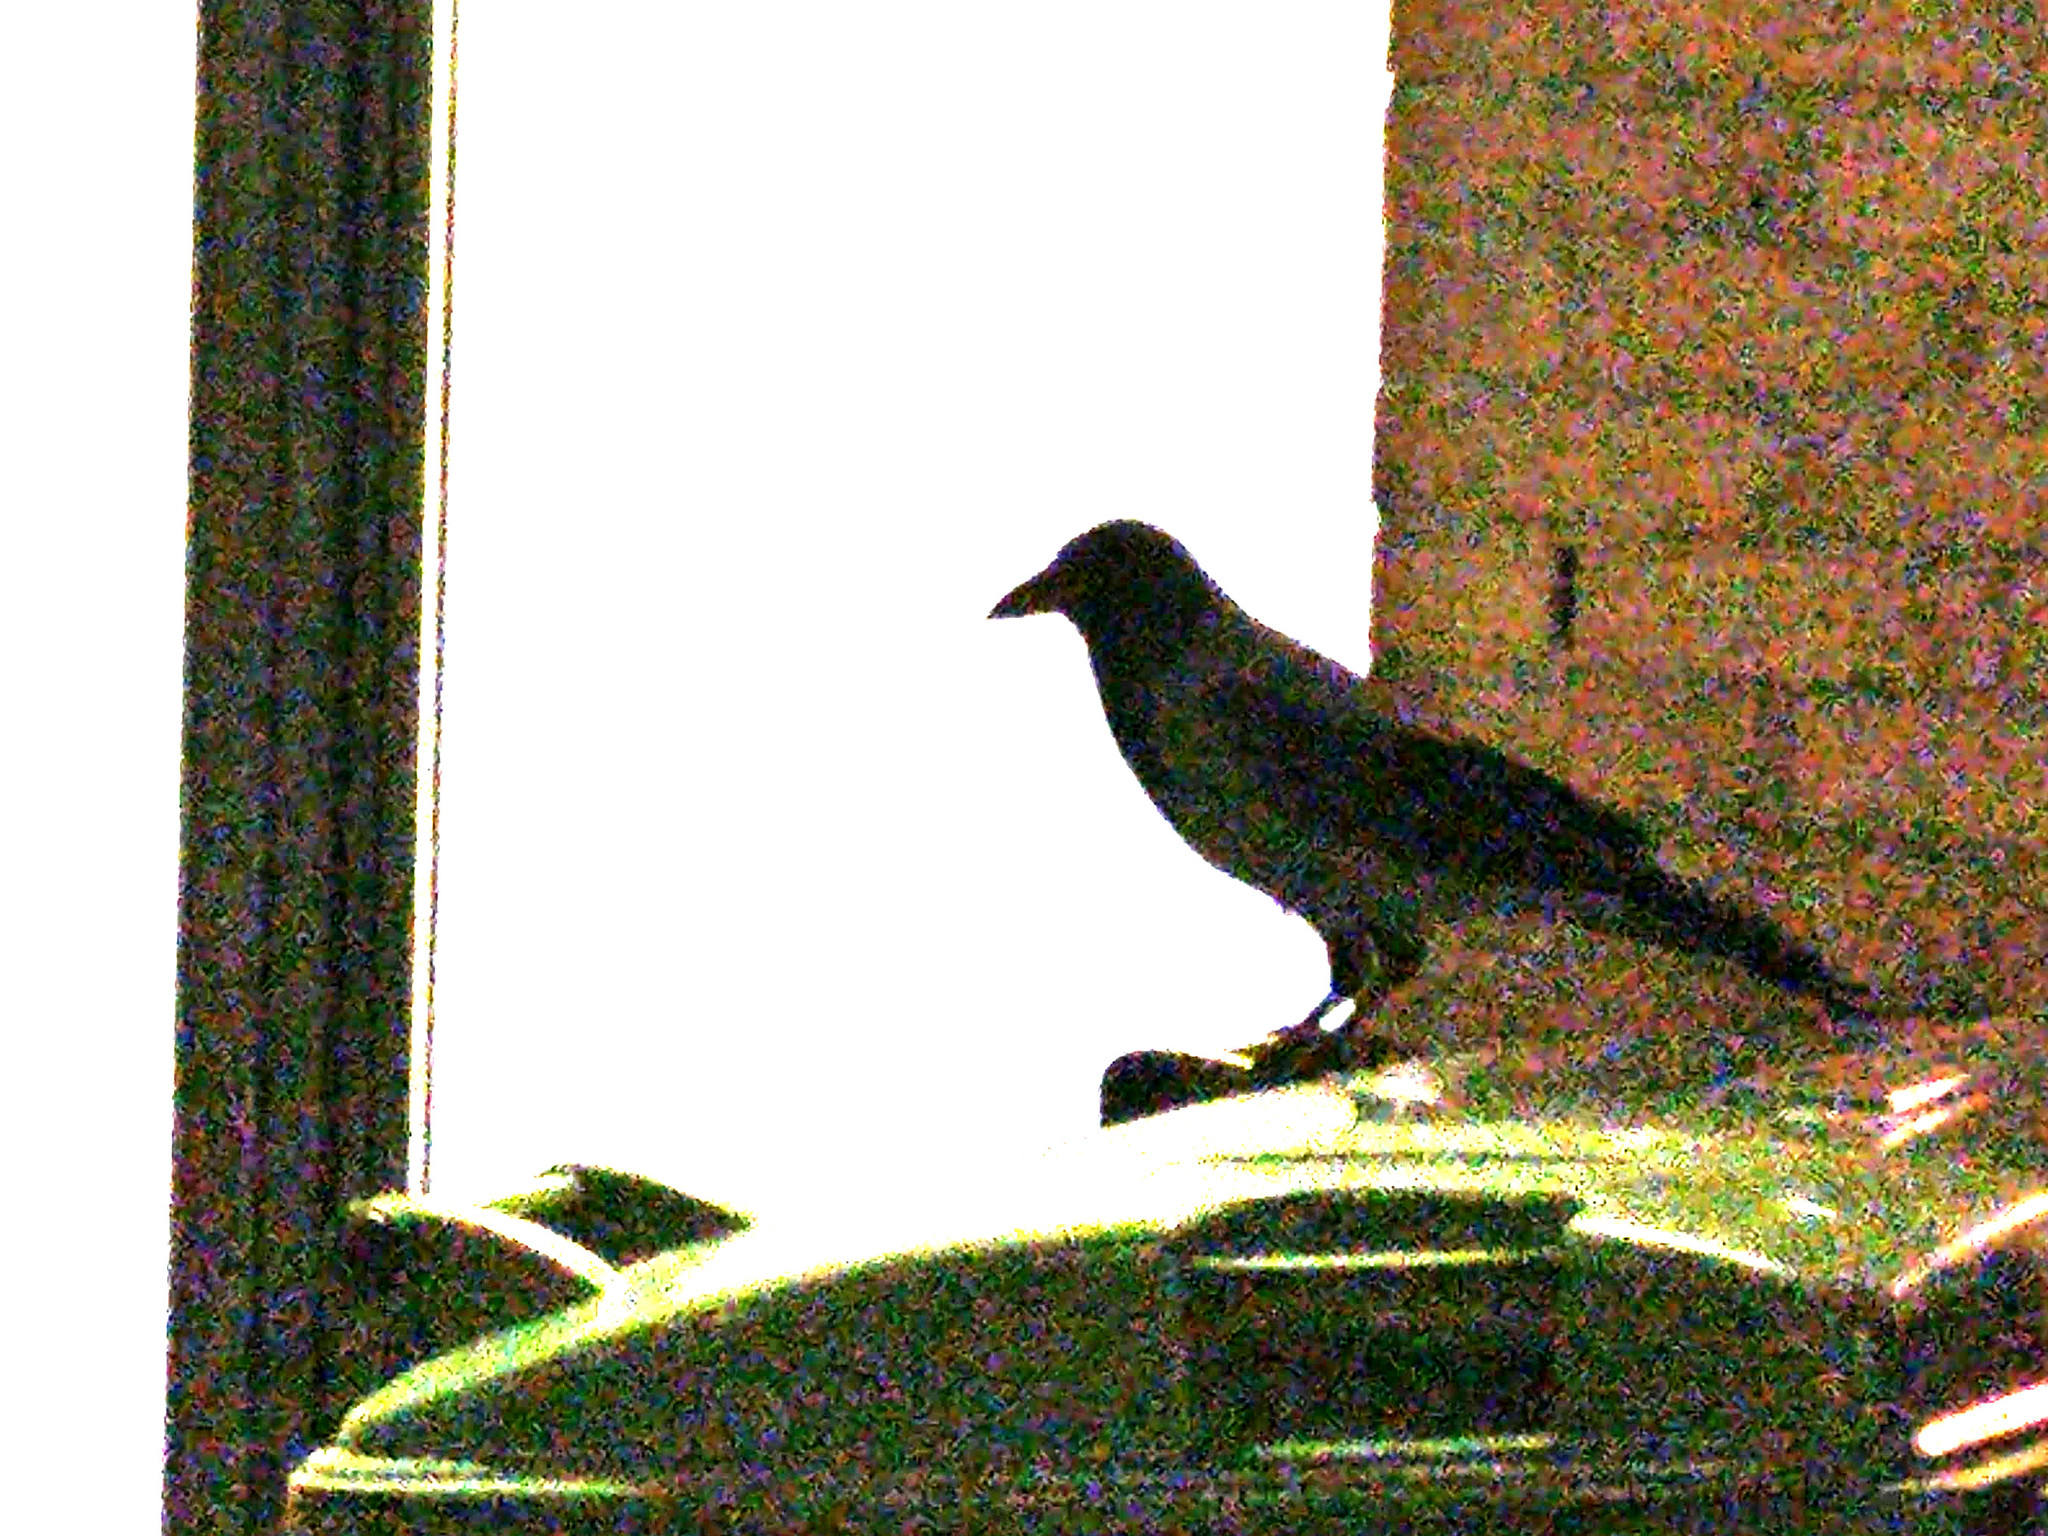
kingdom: Animalia
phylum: Chordata
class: Aves
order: Passeriformes
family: Corvidae
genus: Corvus
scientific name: Corvus cornix
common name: Hooded crow
